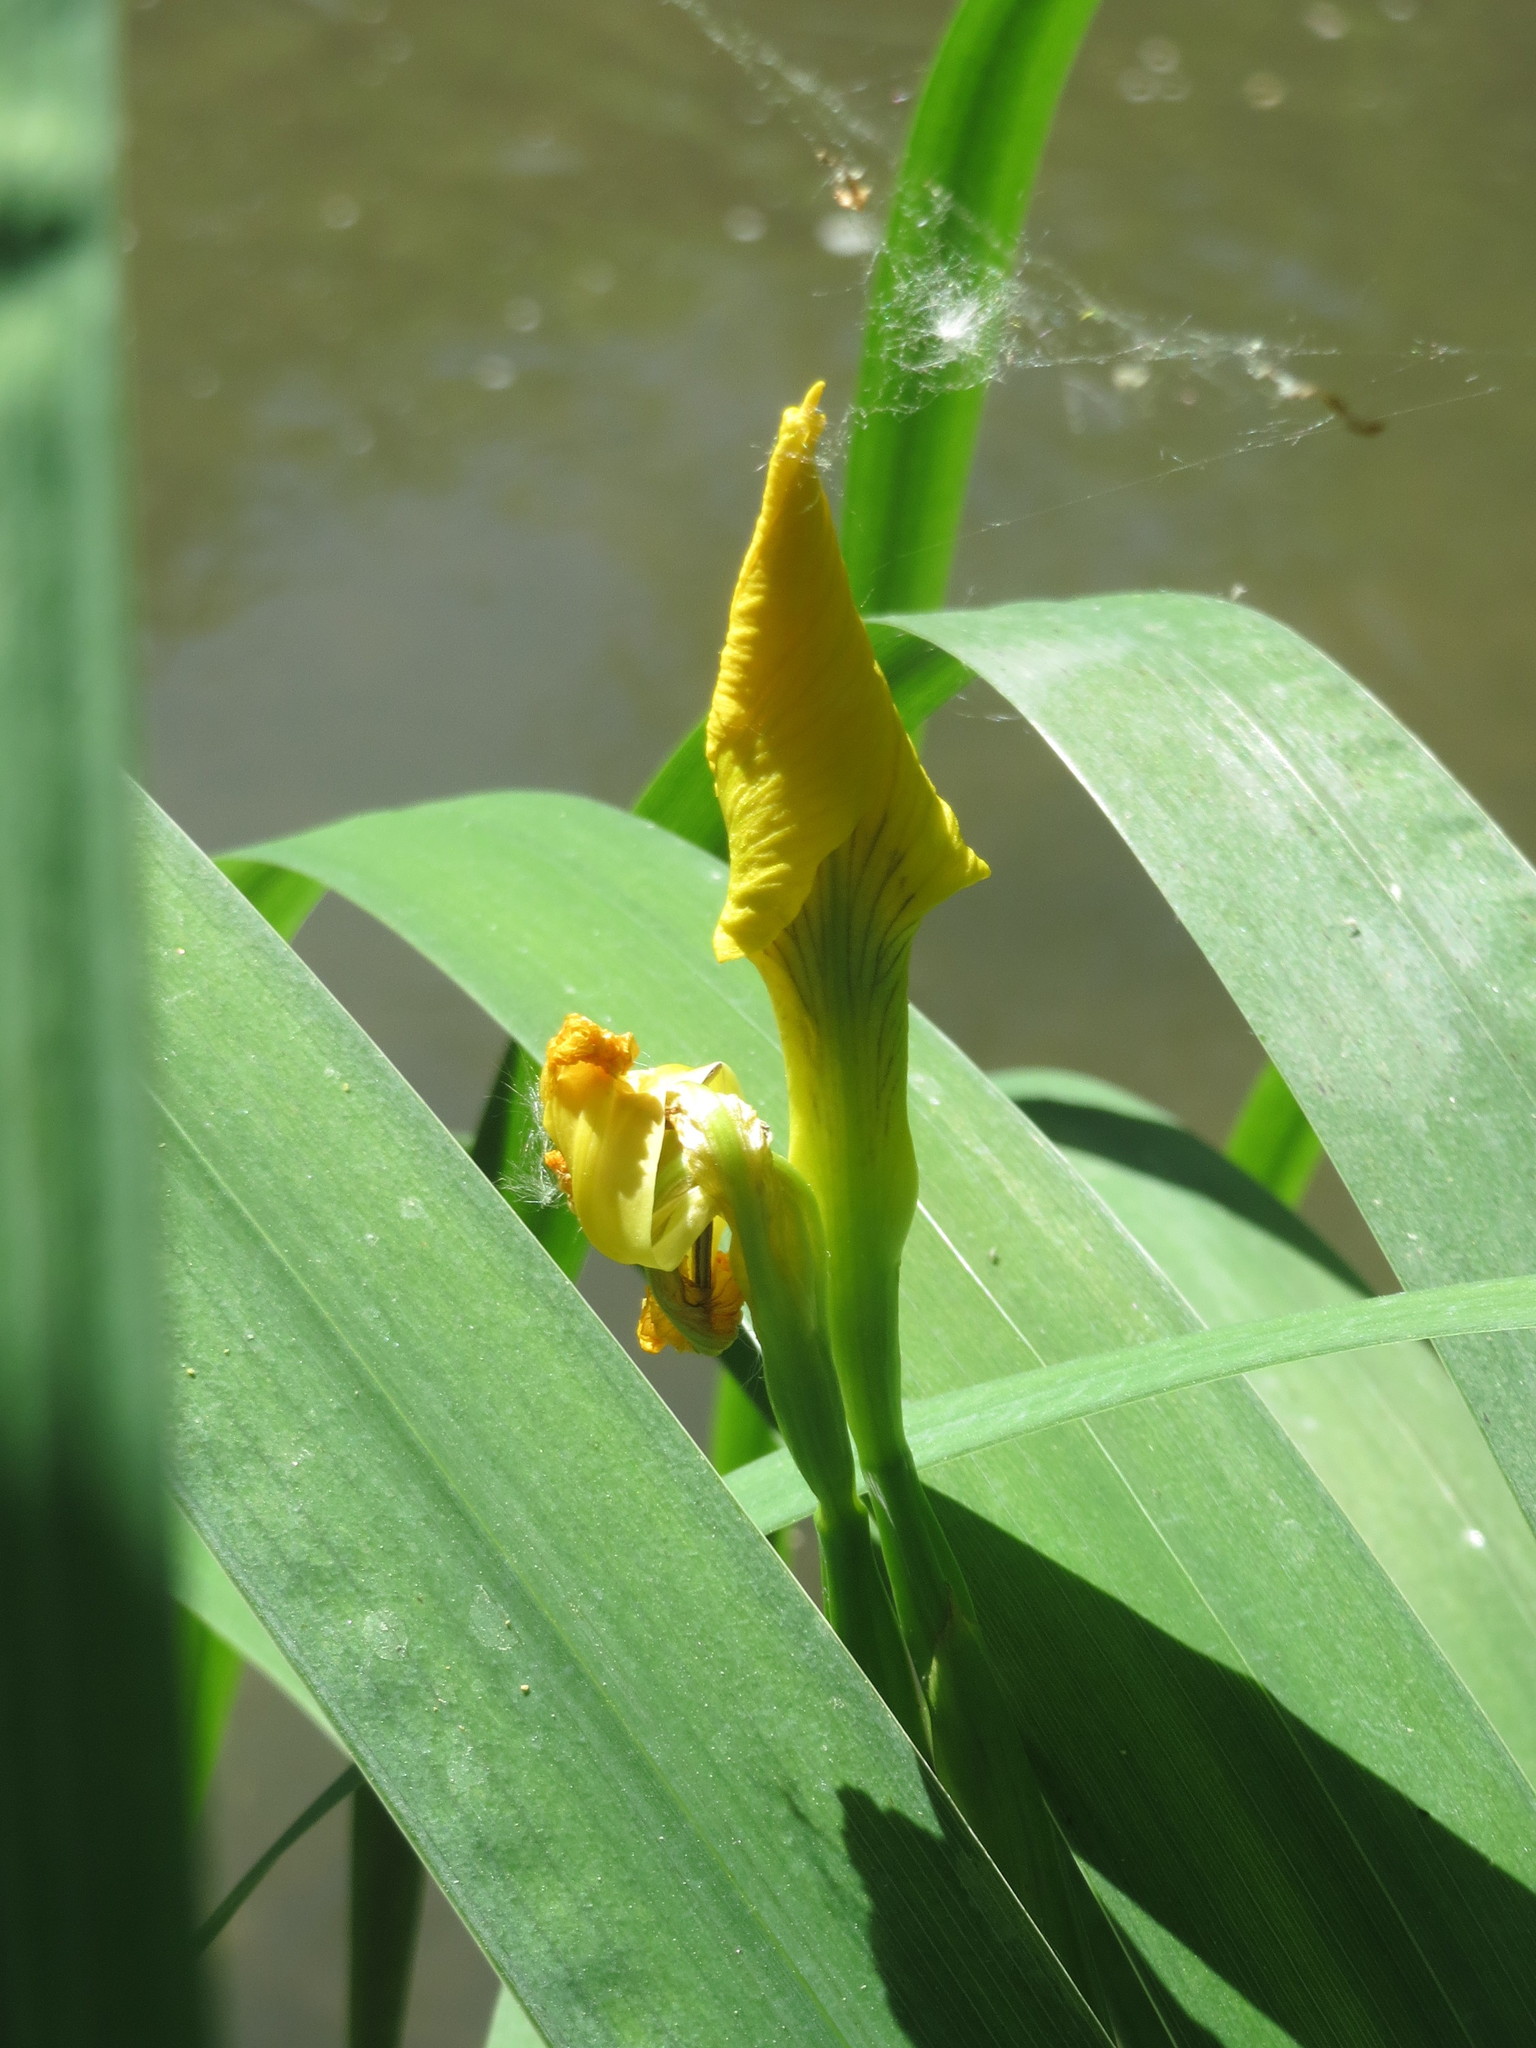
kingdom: Plantae
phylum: Tracheophyta
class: Liliopsida
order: Asparagales
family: Iridaceae
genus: Iris
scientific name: Iris pseudacorus
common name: Yellow flag
